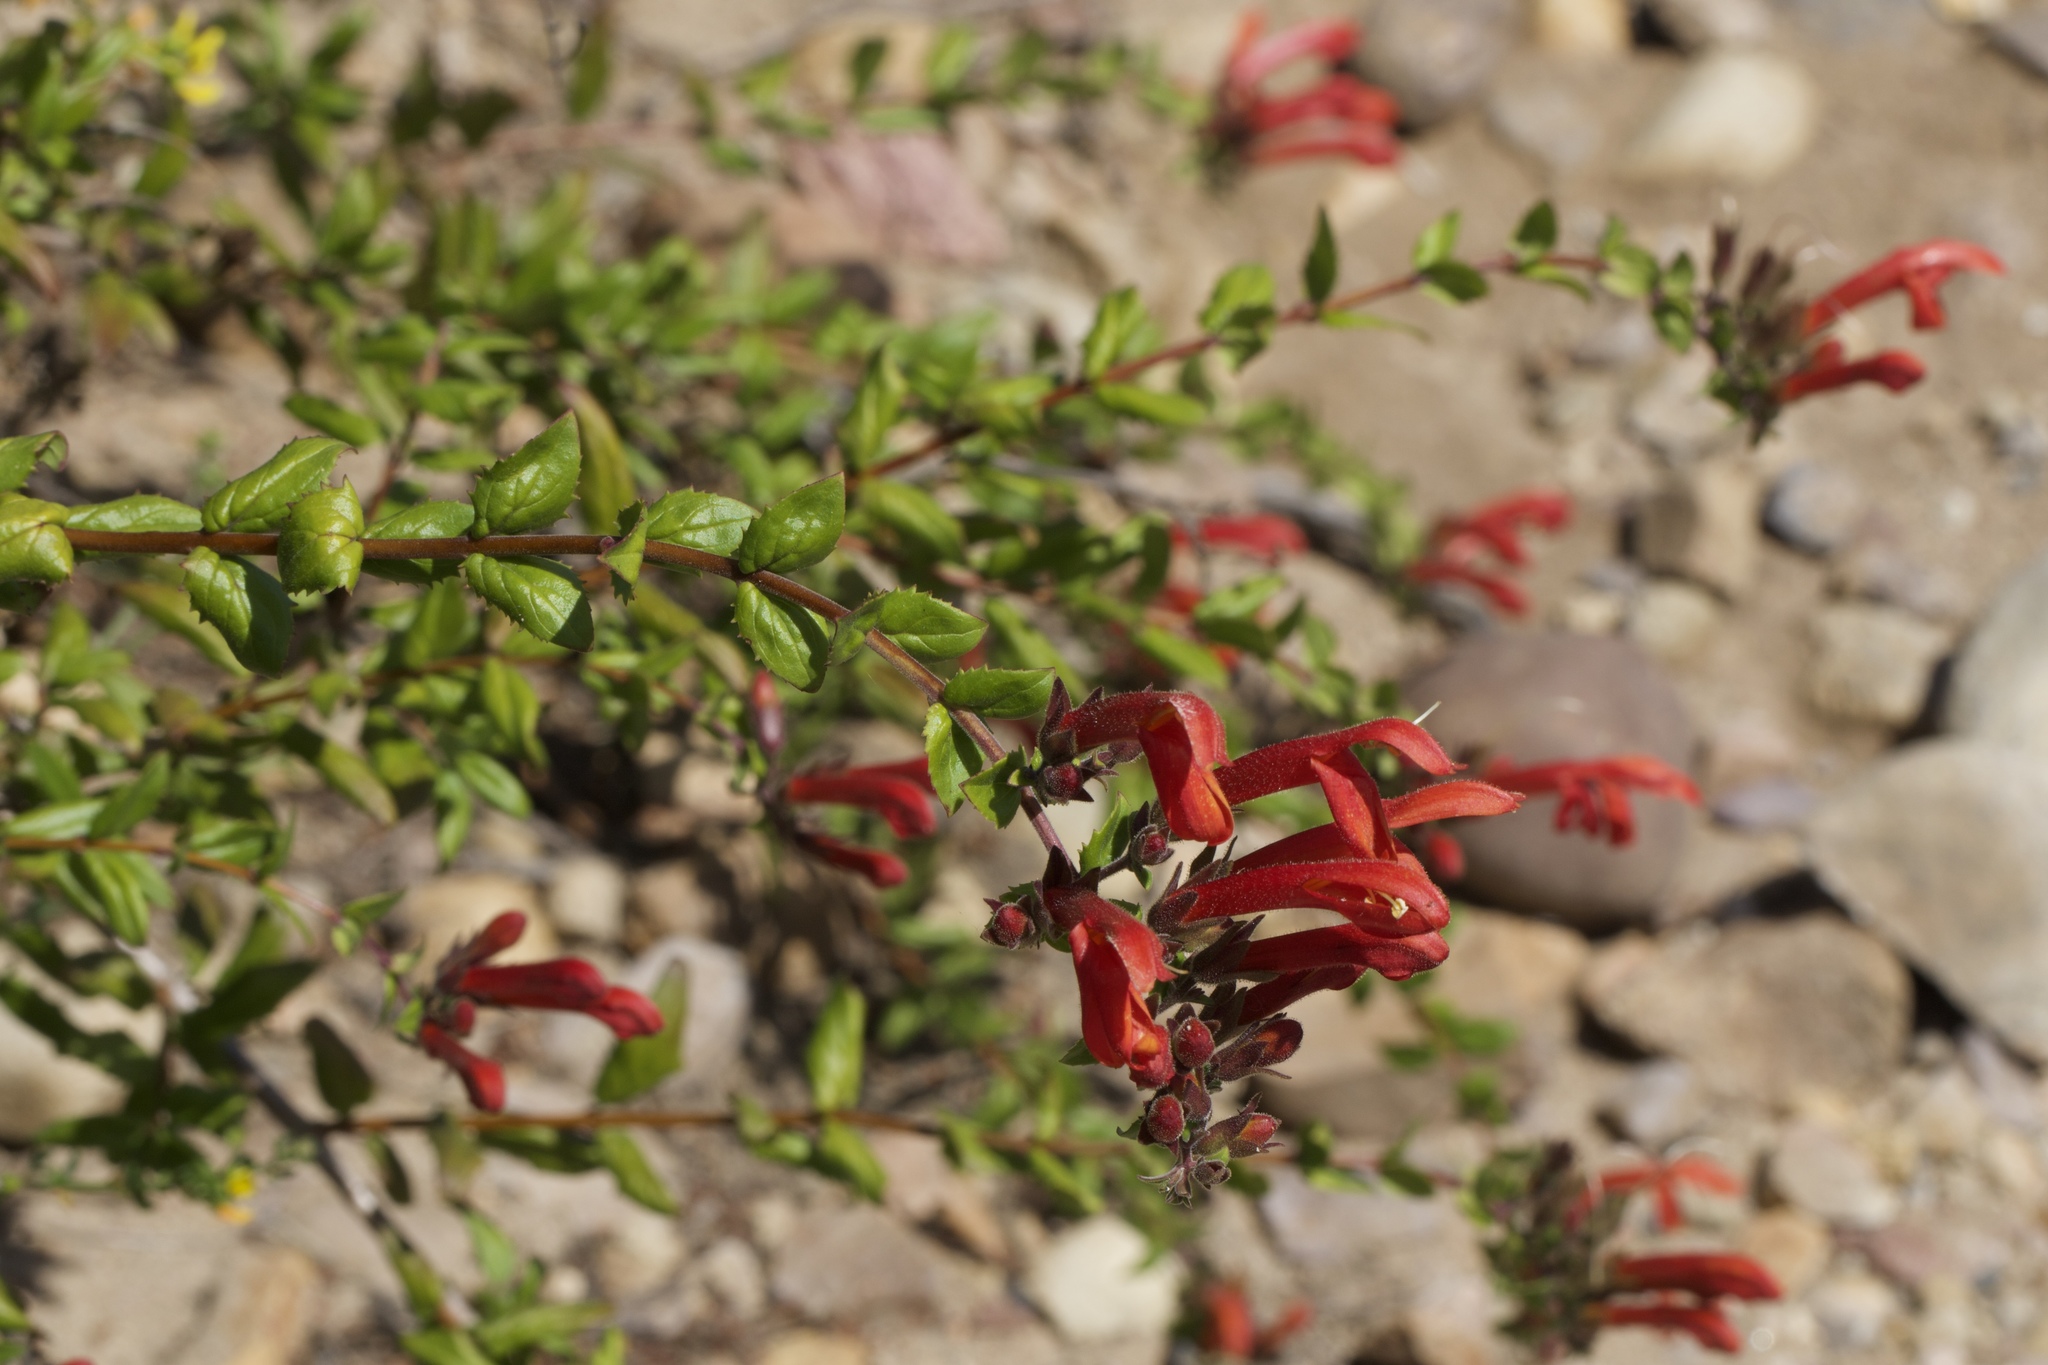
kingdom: Plantae
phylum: Tracheophyta
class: Magnoliopsida
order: Lamiales
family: Plantaginaceae
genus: Keckiella
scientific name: Keckiella cordifolia
